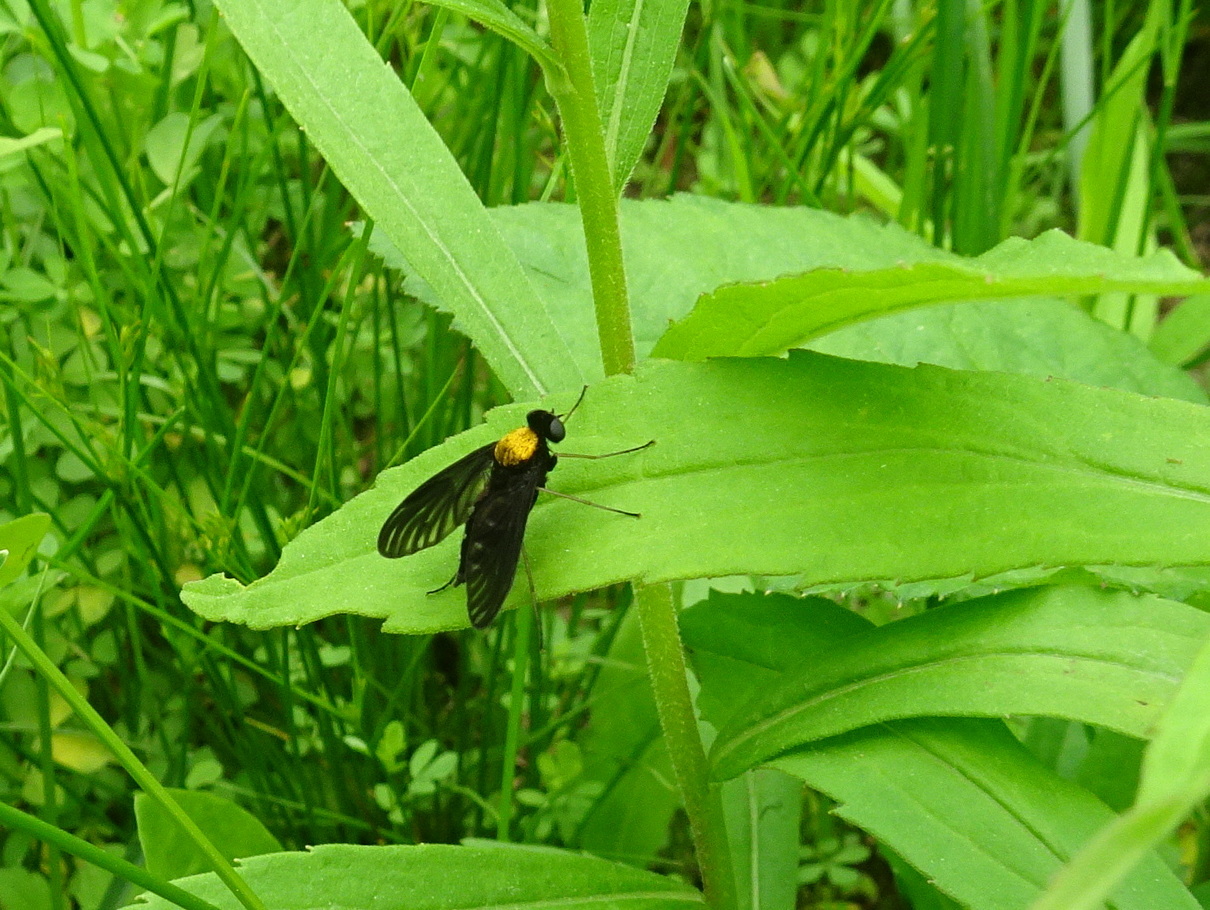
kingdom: Animalia
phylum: Arthropoda
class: Insecta
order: Diptera
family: Rhagionidae
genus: Chrysopilus
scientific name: Chrysopilus thoracicus
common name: Golden-backed snipe fly
